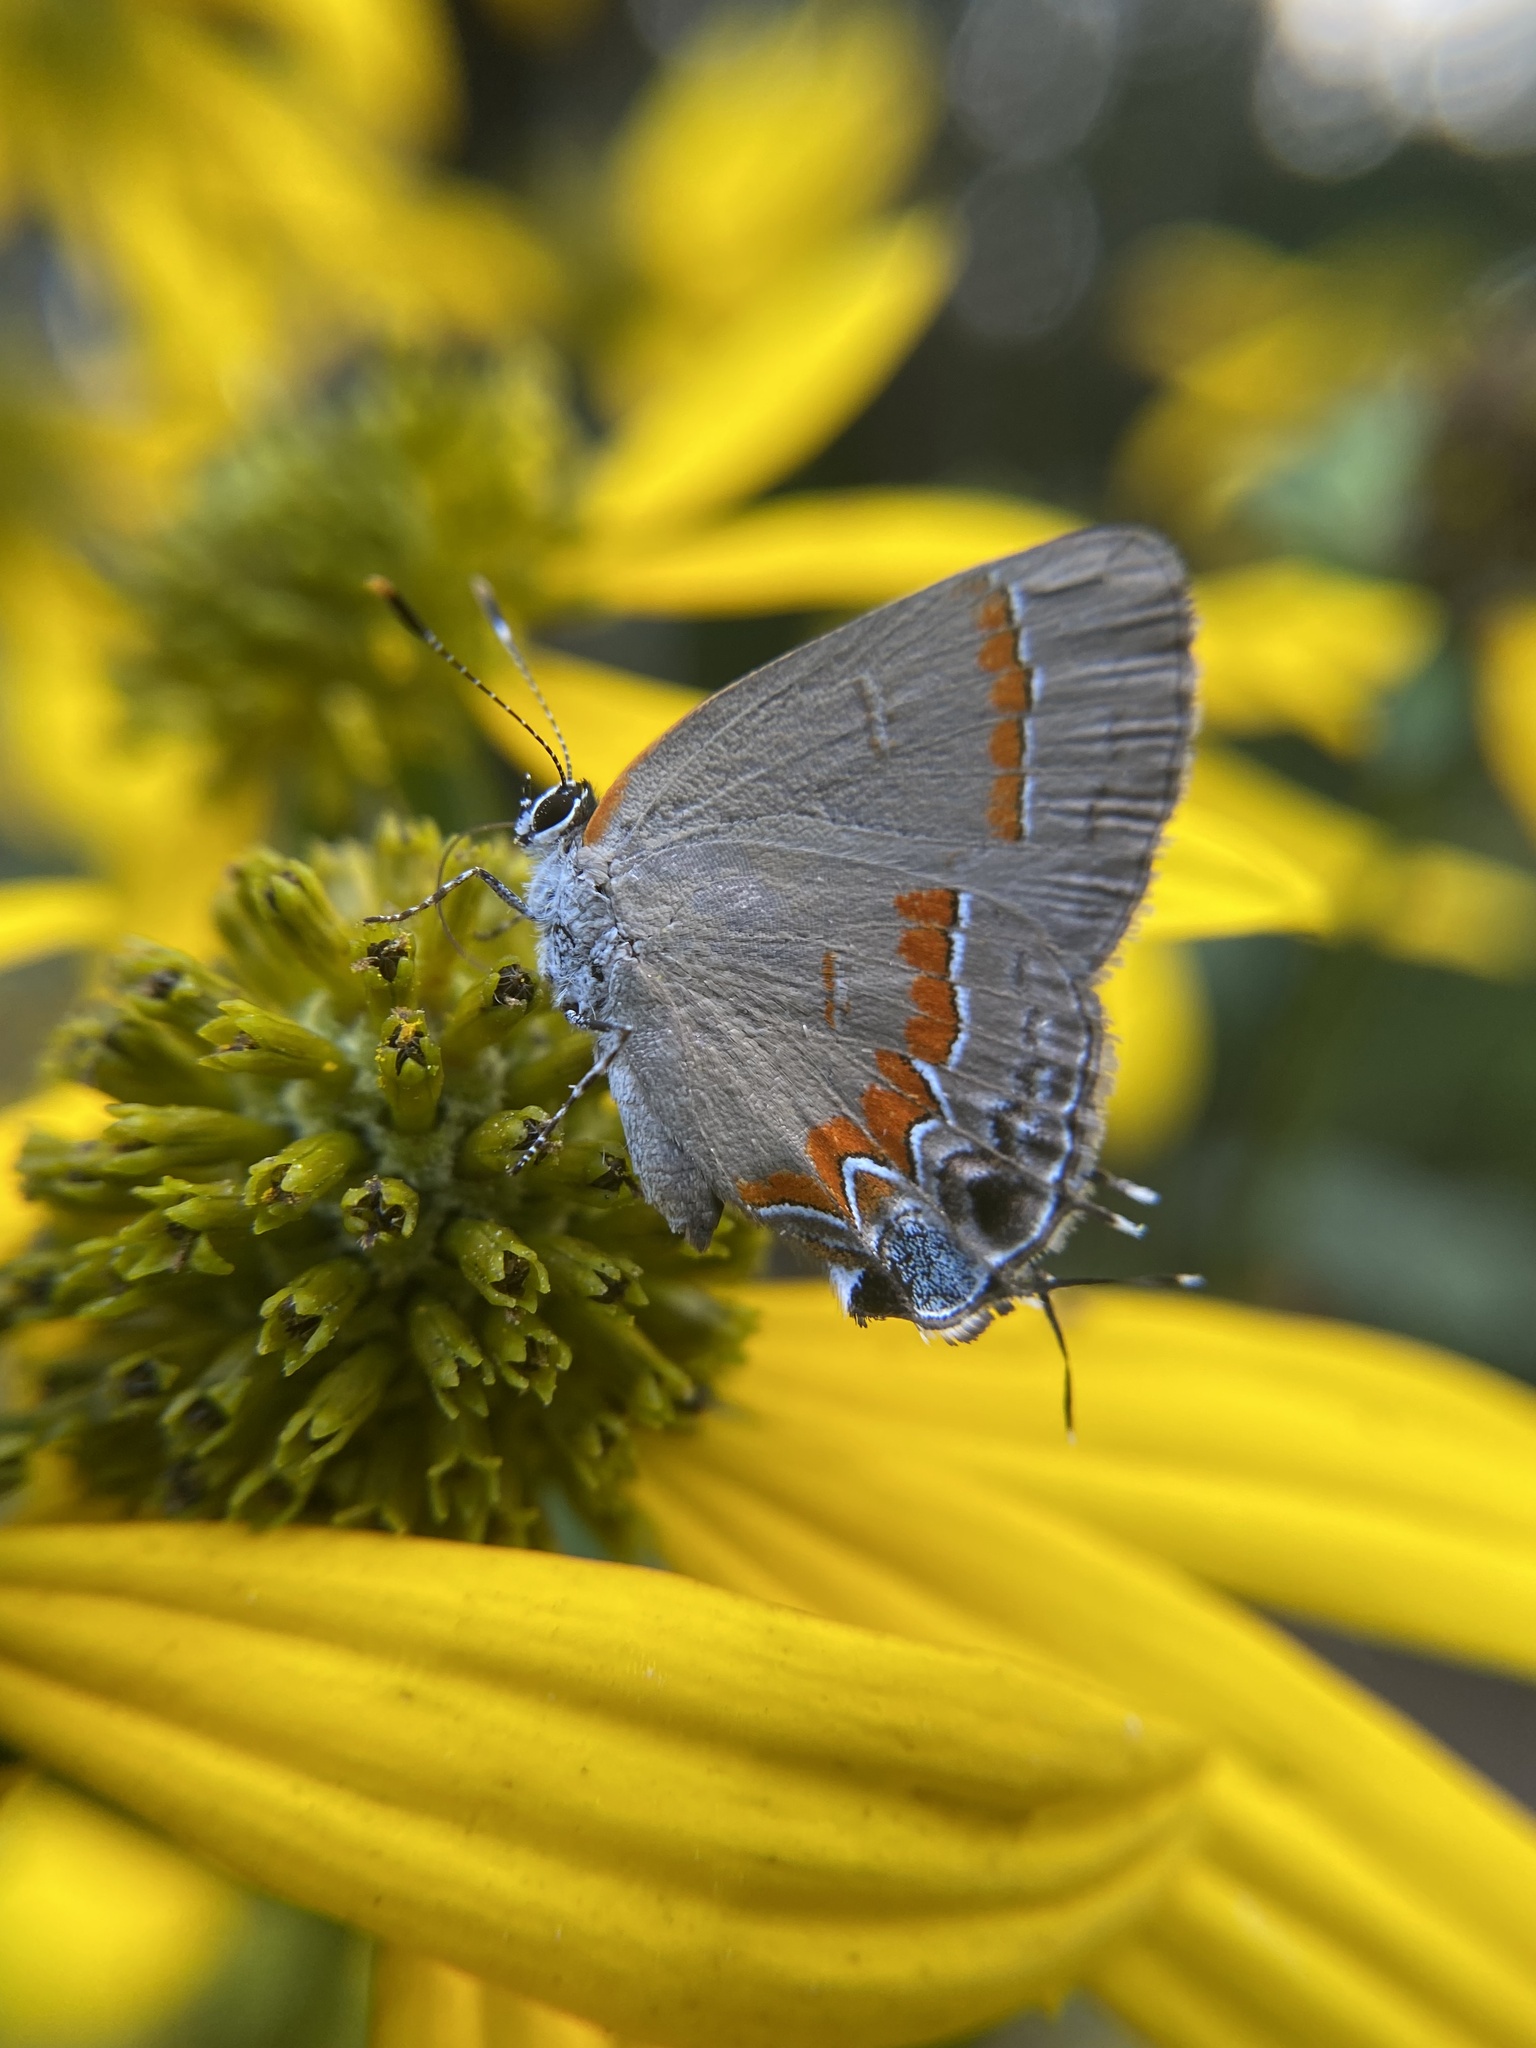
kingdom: Animalia
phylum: Arthropoda
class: Insecta
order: Lepidoptera
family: Lycaenidae
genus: Calycopis
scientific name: Calycopis cecrops
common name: Red-banded hairstreak
